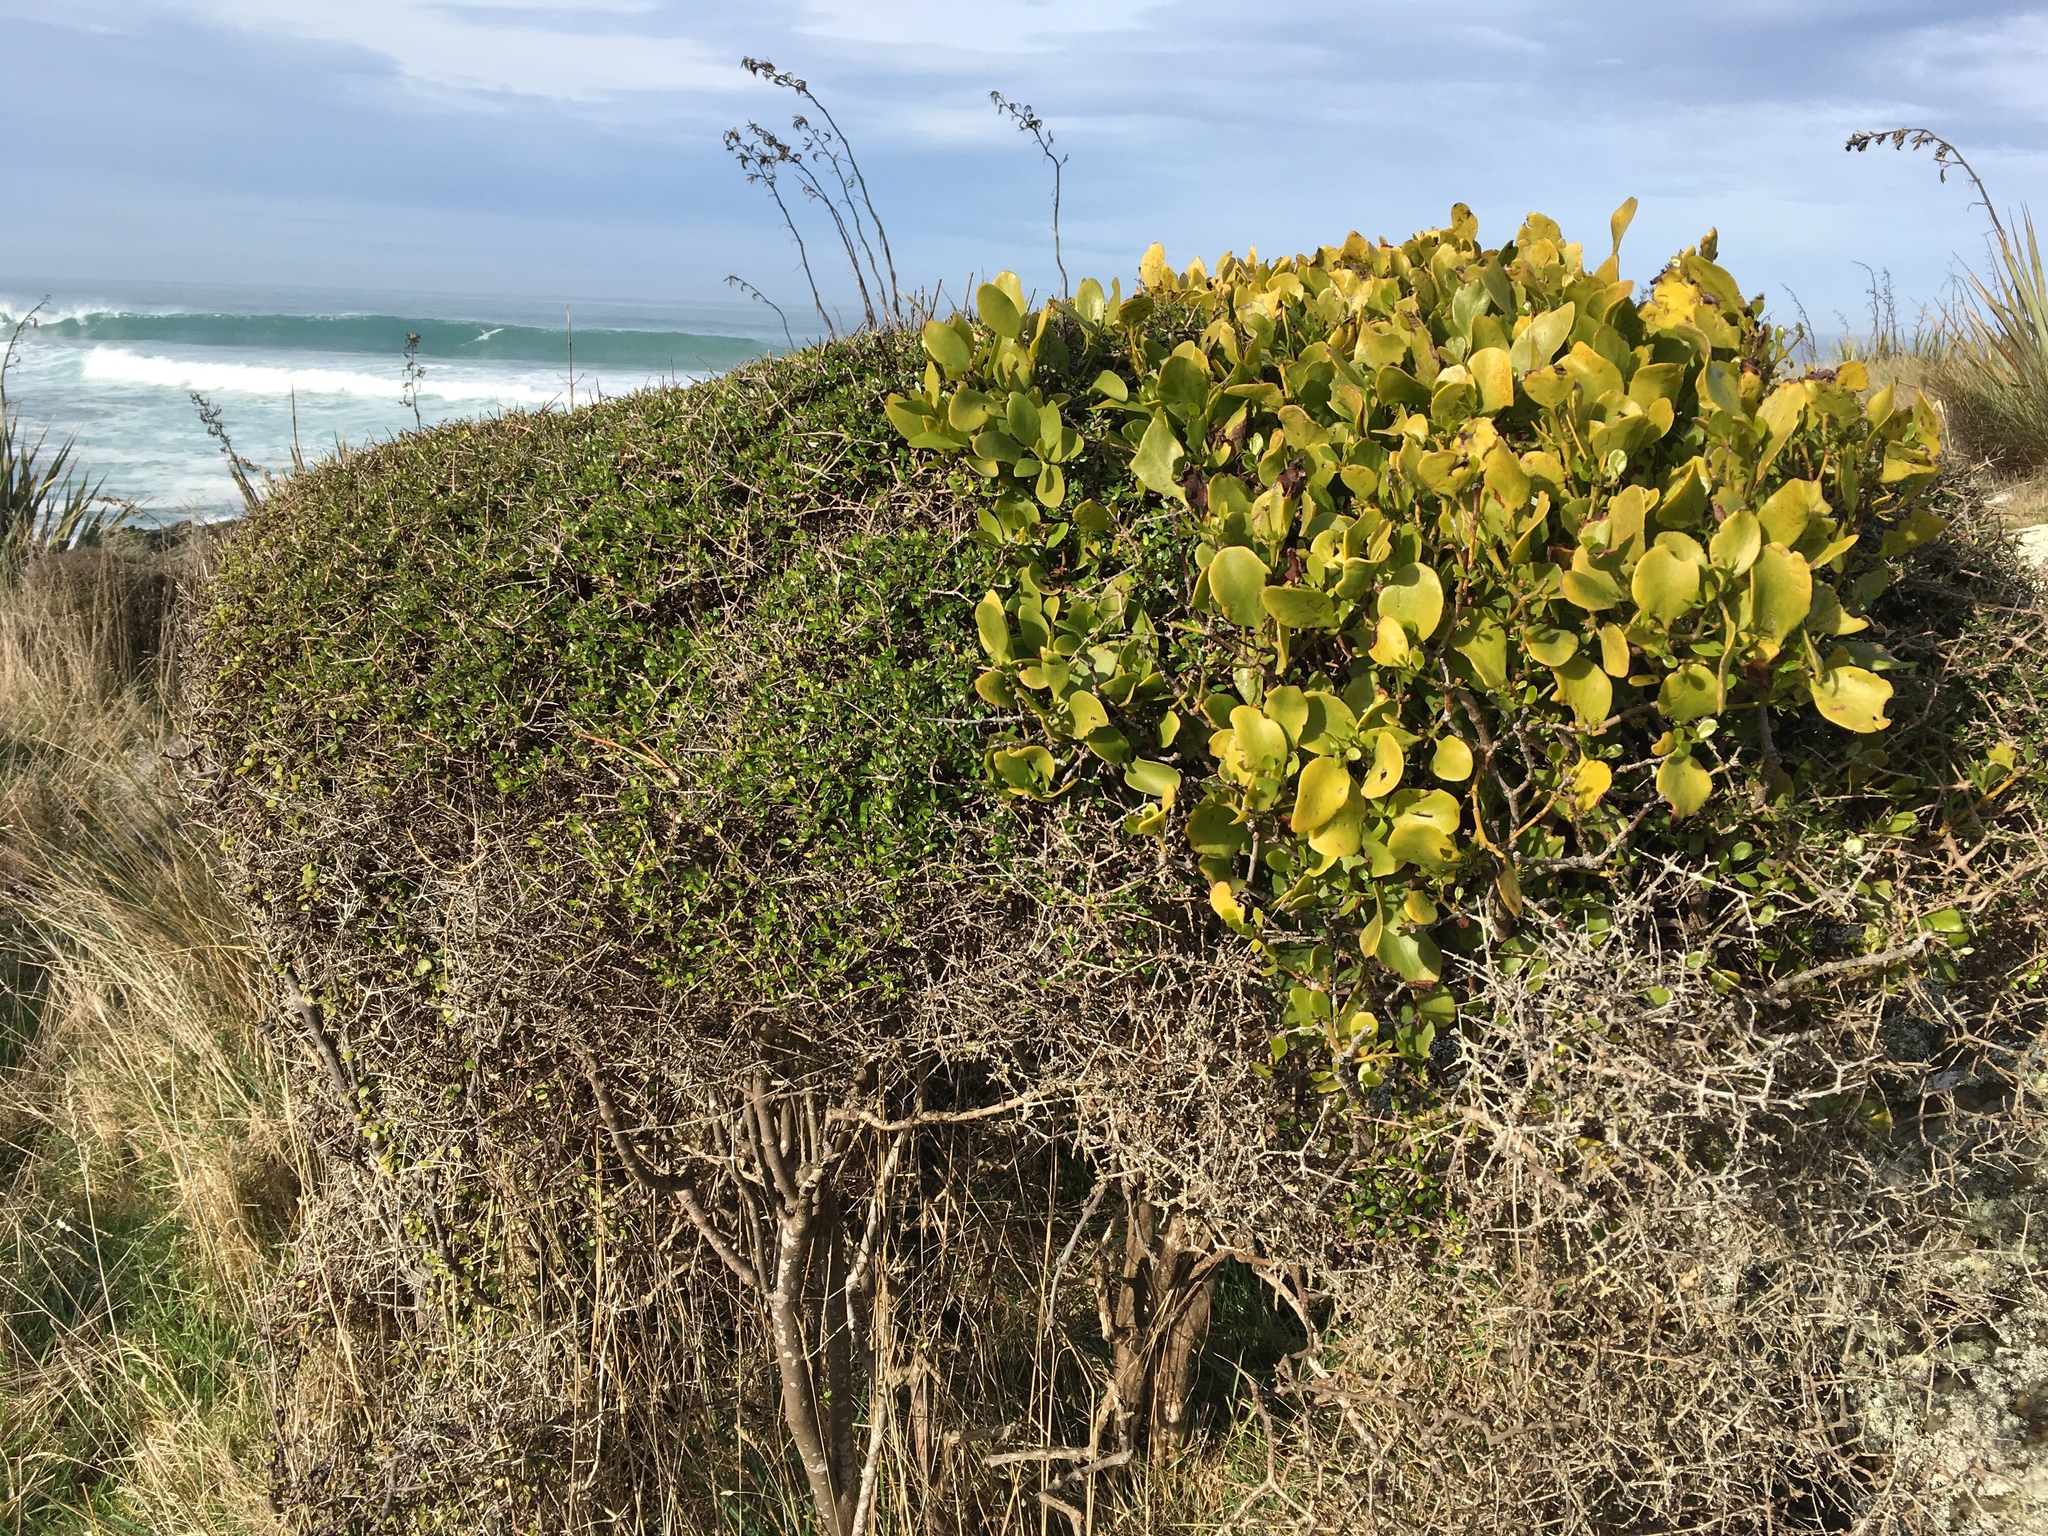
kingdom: Plantae
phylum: Tracheophyta
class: Magnoliopsida
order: Santalales
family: Loranthaceae
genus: Ileostylus
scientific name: Ileostylus micranthus
